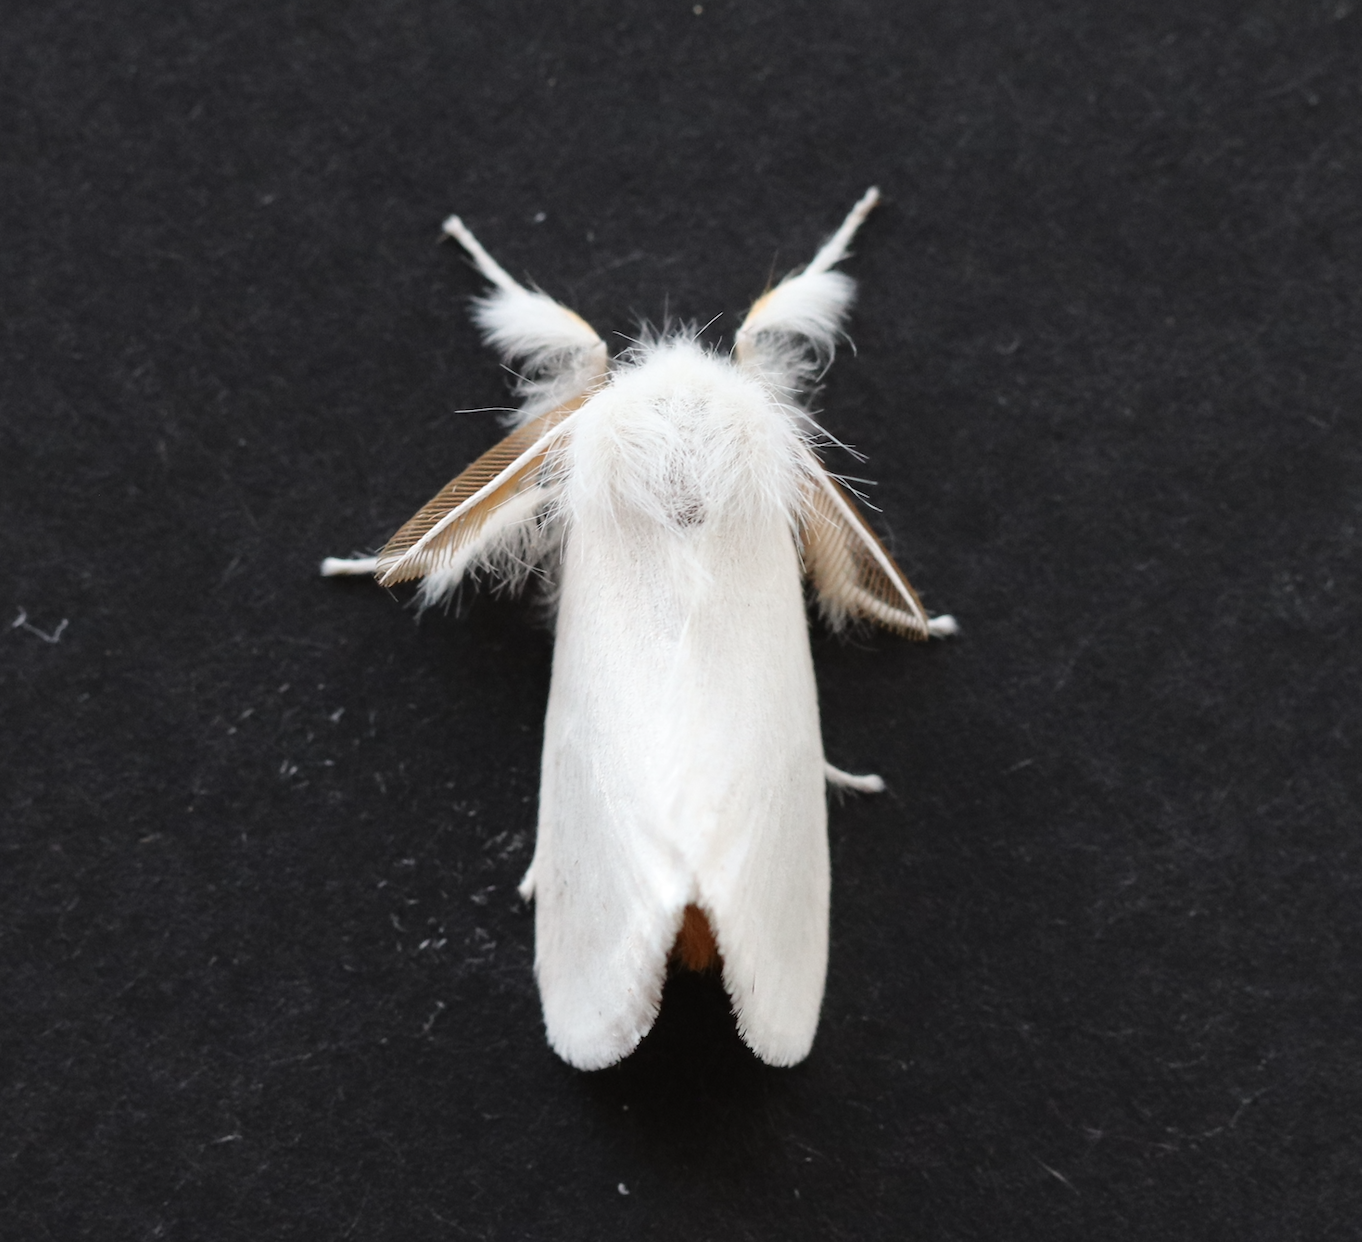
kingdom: Animalia
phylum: Arthropoda
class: Insecta
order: Lepidoptera
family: Erebidae
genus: Euproctis
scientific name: Euproctis chrysorrhoea
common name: Brown-tail
